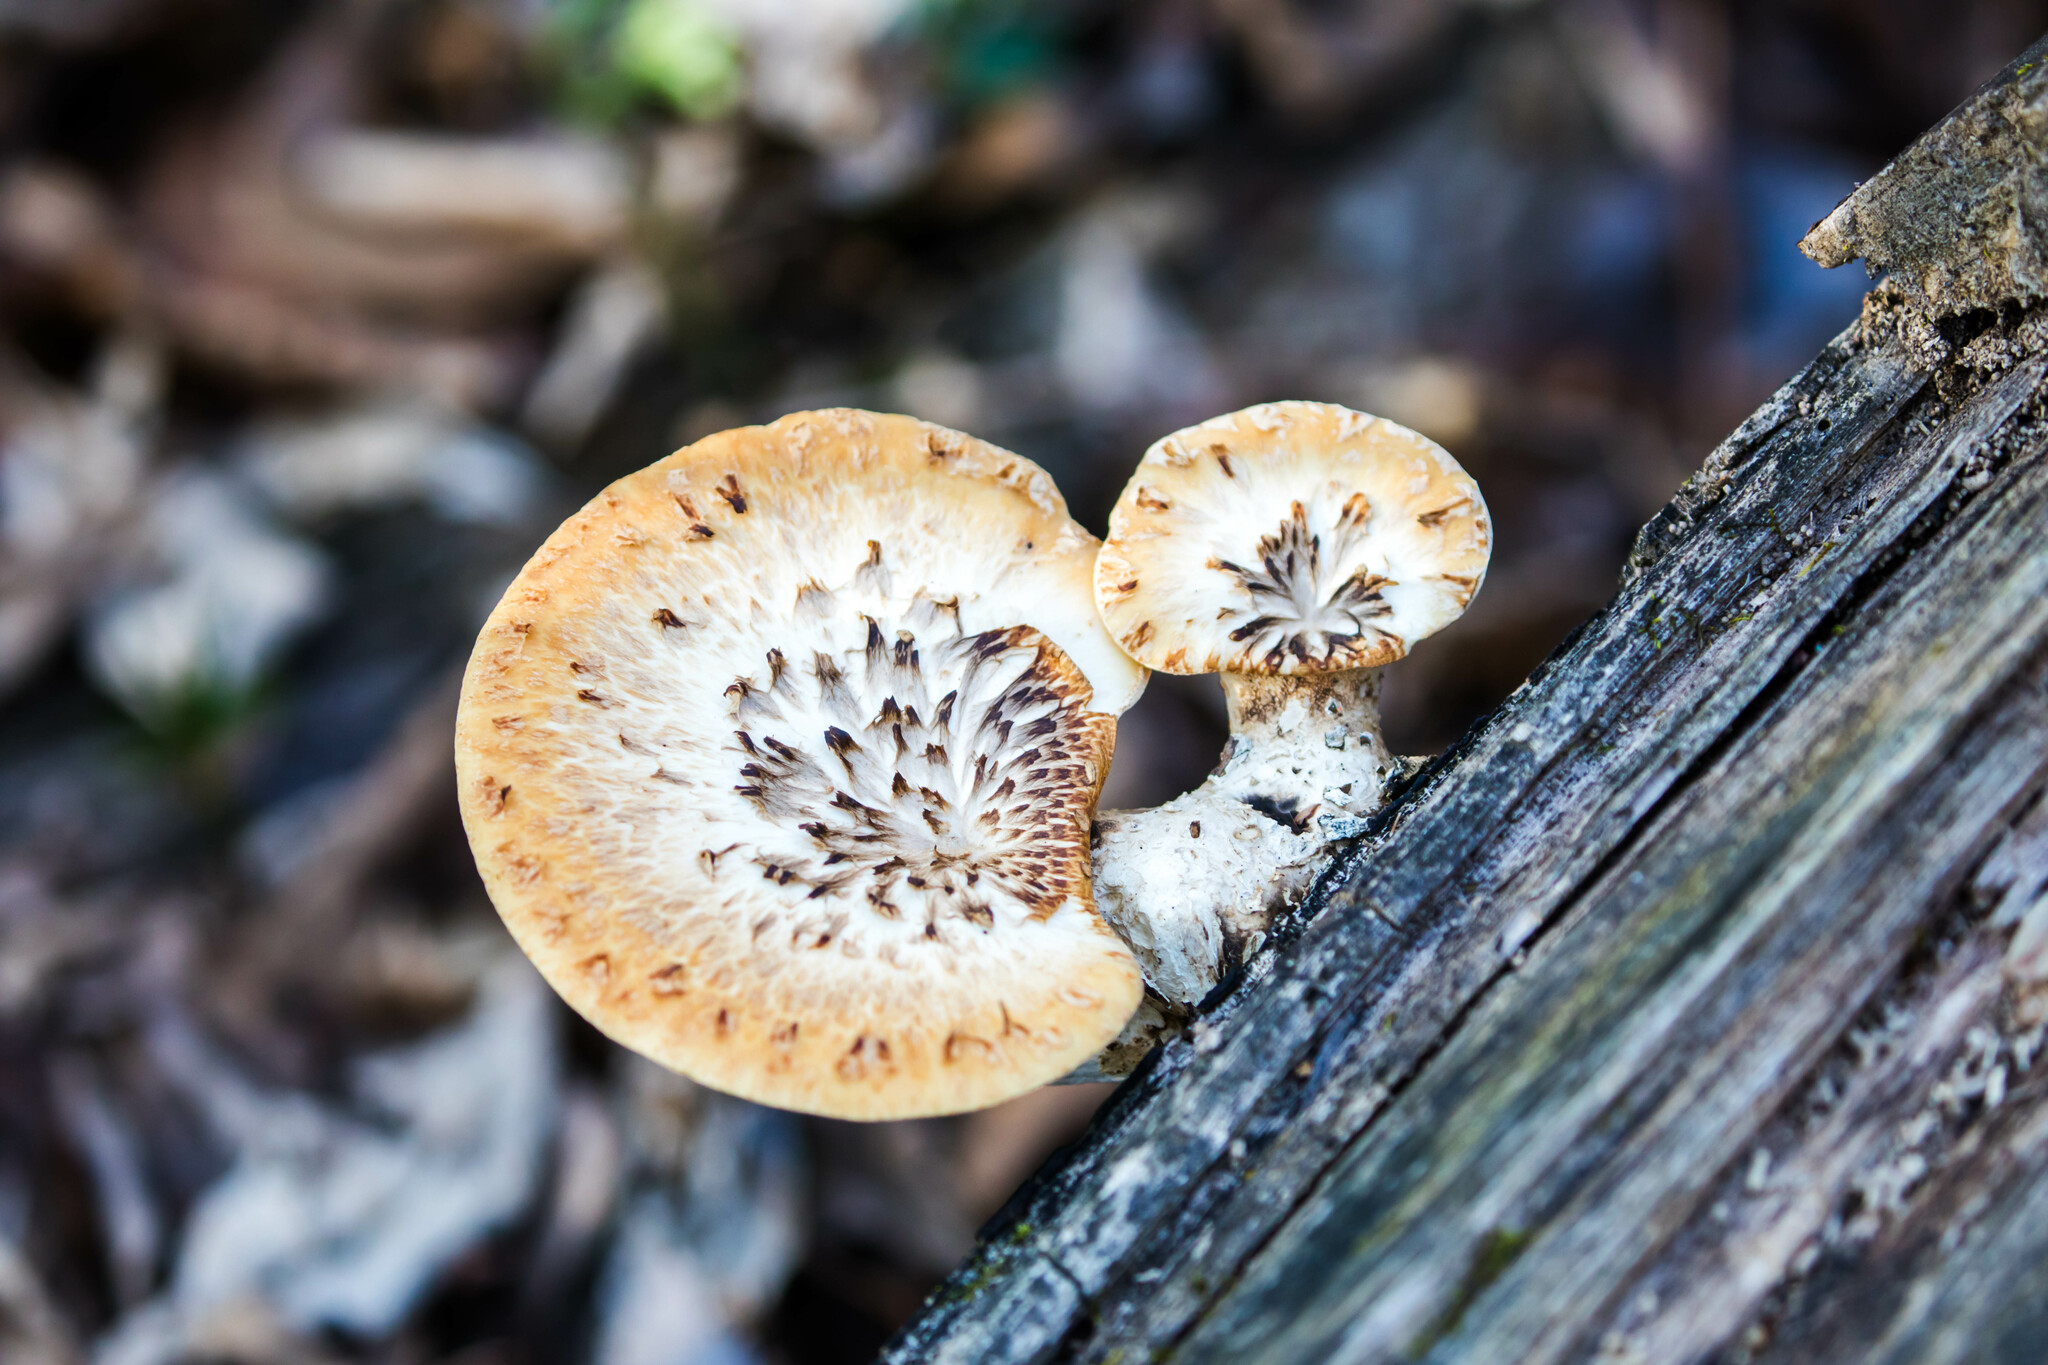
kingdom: Fungi
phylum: Basidiomycota
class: Agaricomycetes
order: Polyporales
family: Polyporaceae
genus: Cerioporus
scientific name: Cerioporus squamosus
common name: Dryad's saddle
